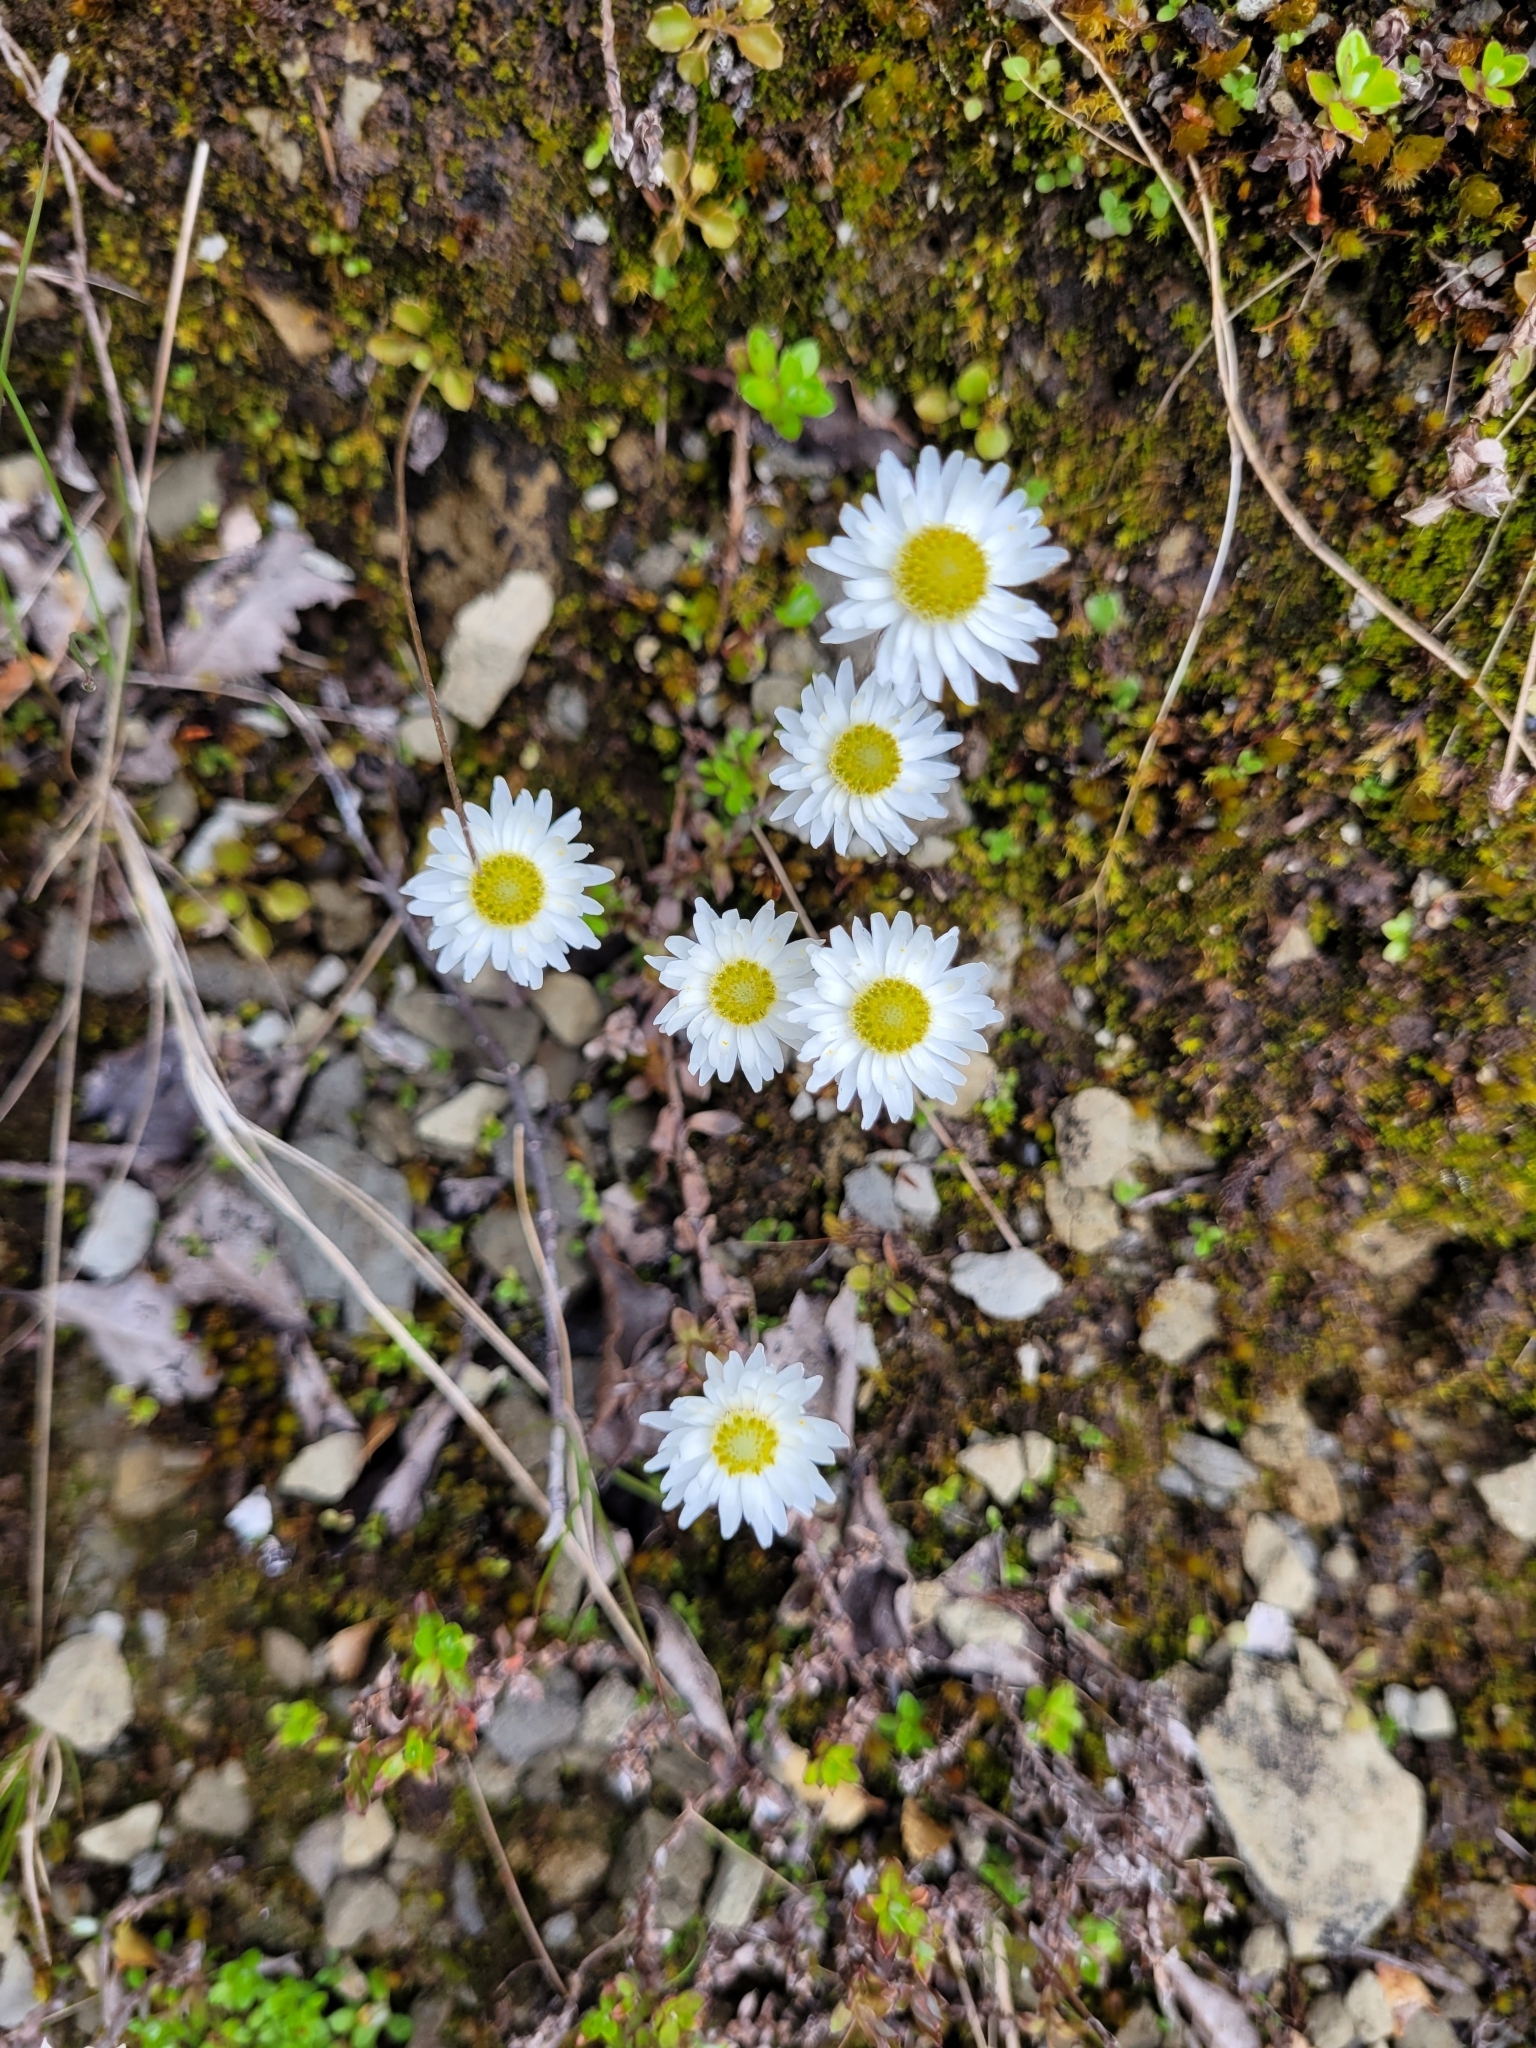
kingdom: Plantae
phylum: Tracheophyta
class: Magnoliopsida
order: Asterales
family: Asteraceae
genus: Anaphalioides
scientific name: Anaphalioides bellidioides
